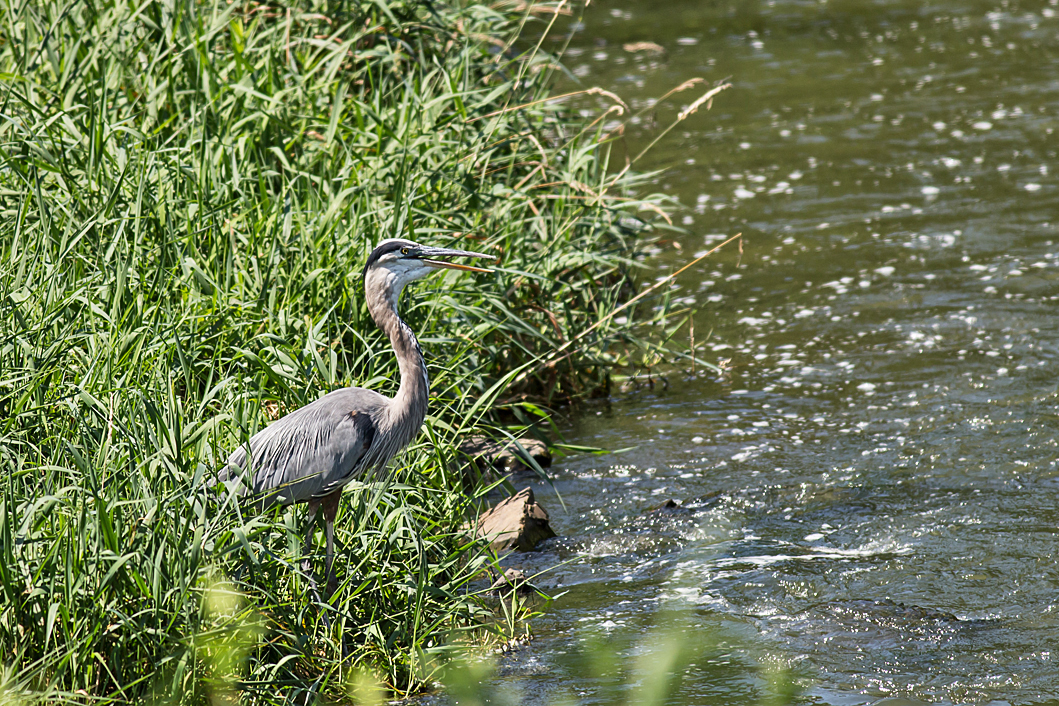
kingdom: Animalia
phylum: Chordata
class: Aves
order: Pelecaniformes
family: Ardeidae
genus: Ardea
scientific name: Ardea herodias
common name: Great blue heron
